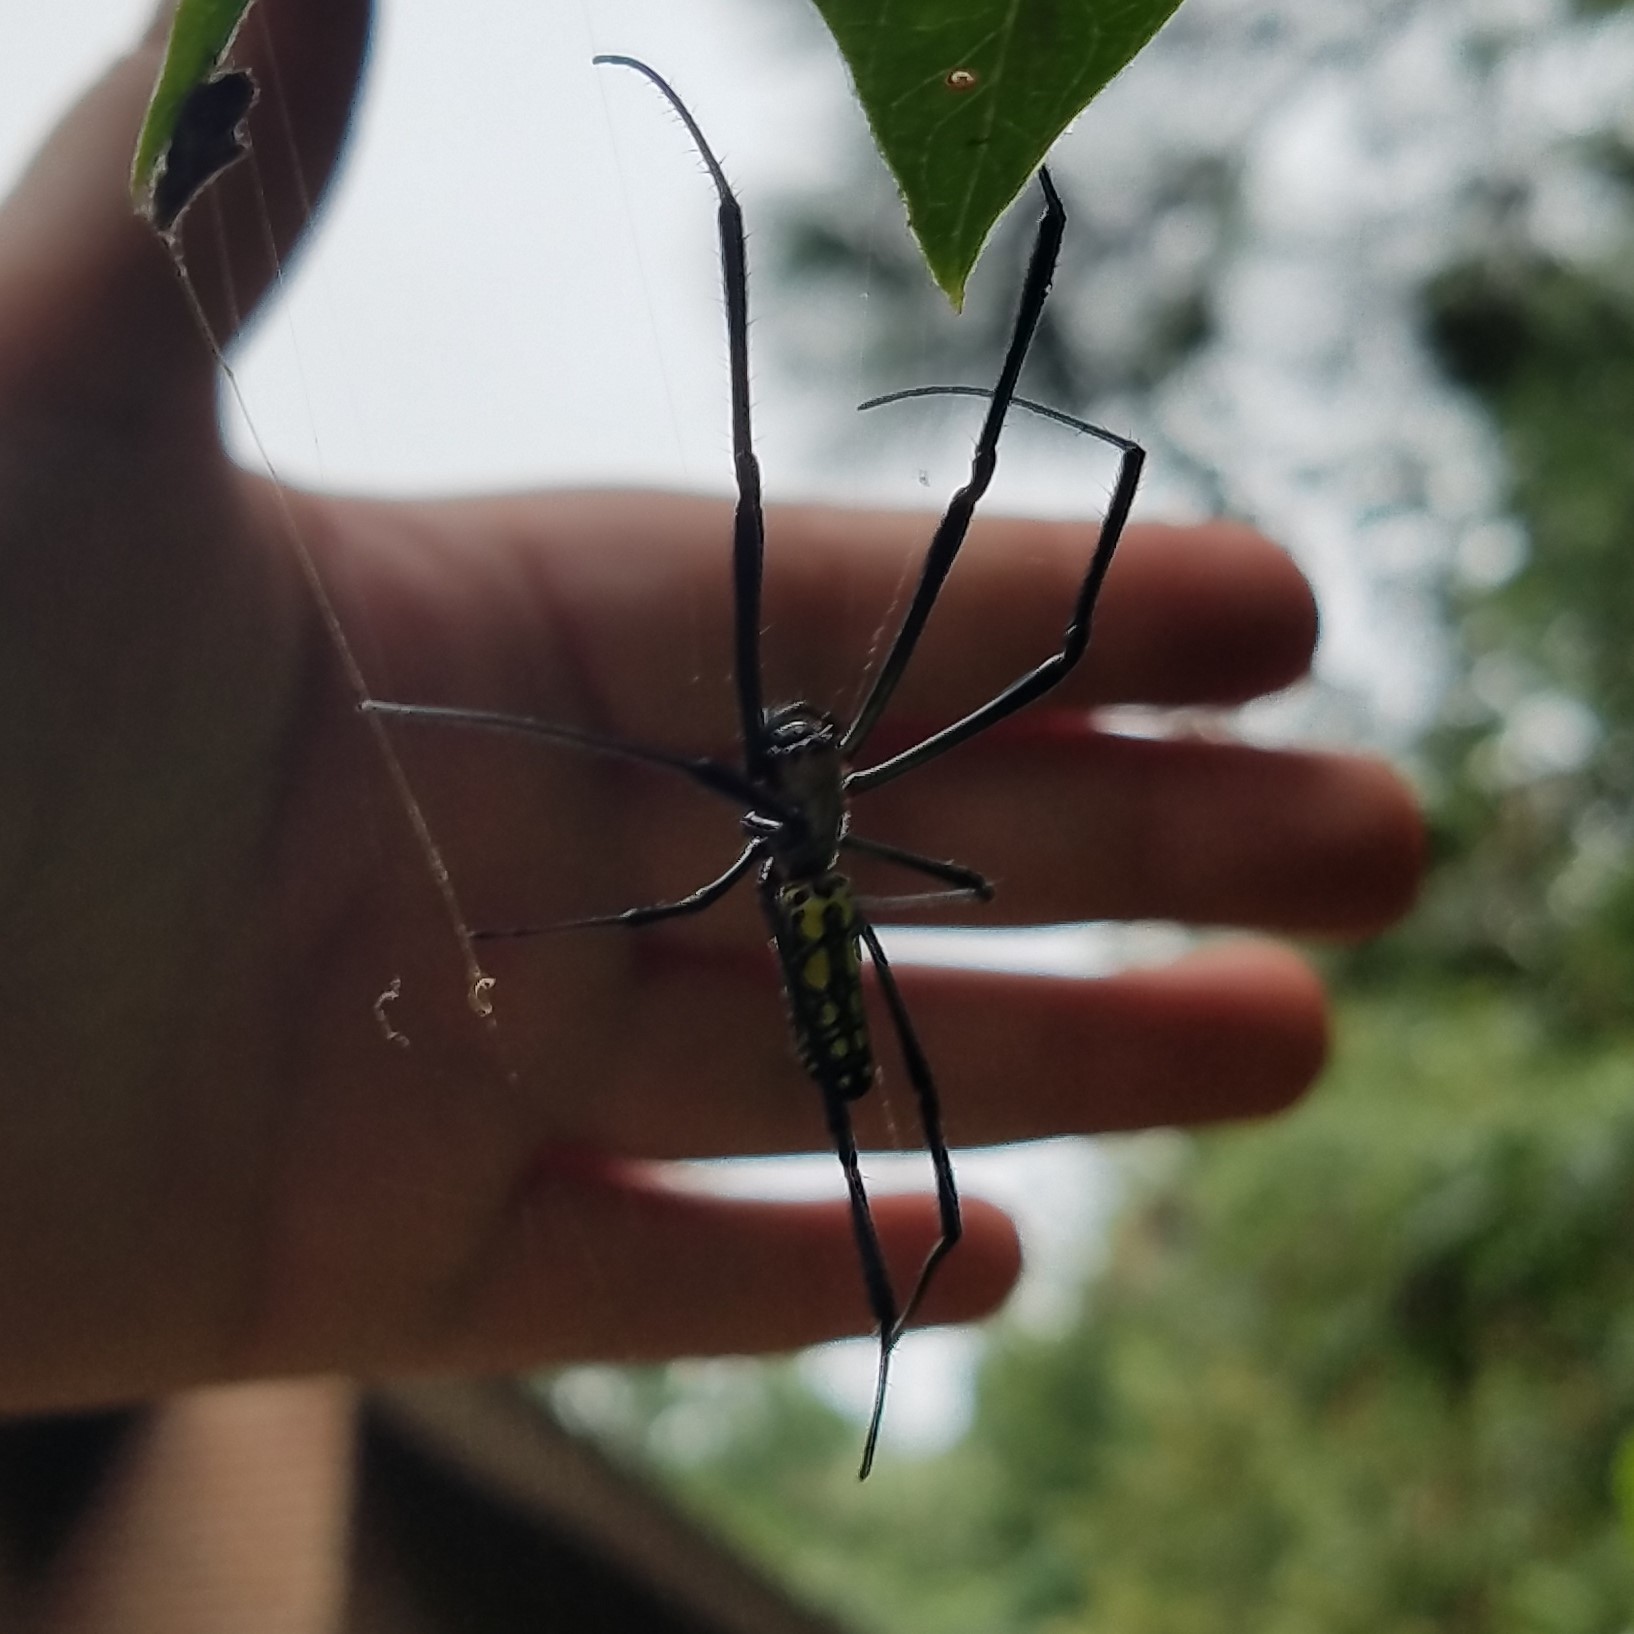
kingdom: Animalia
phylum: Arthropoda
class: Arachnida
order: Araneae
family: Araneidae
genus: Trichonephila
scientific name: Trichonephila clavata
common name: Jorō spider
